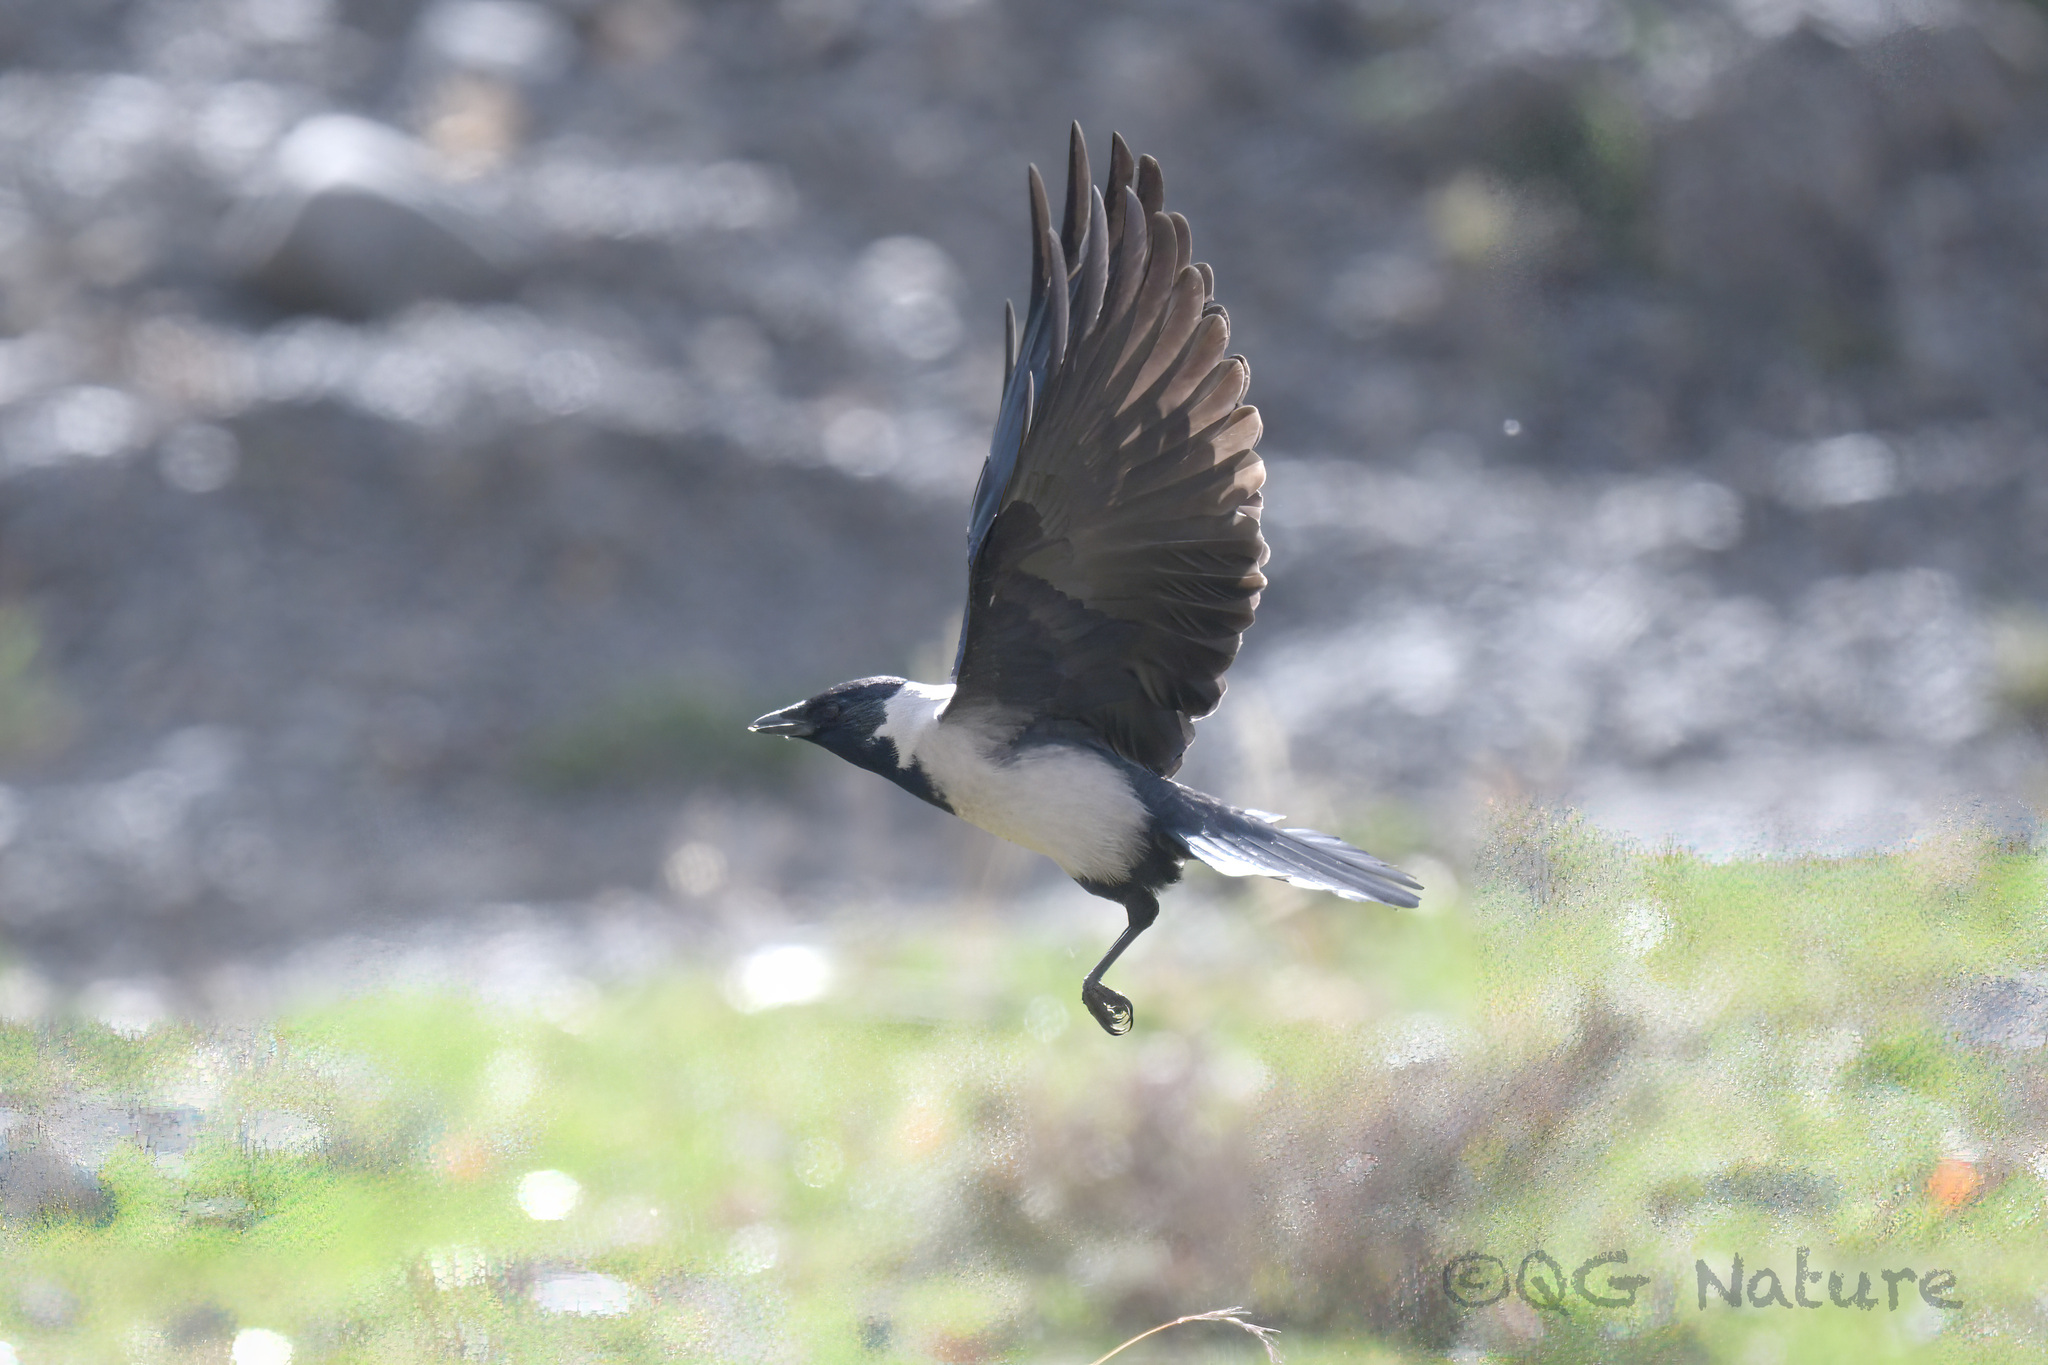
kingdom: Animalia
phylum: Chordata
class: Aves
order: Passeriformes
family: Corvidae
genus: Coloeus
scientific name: Coloeus dauuricus
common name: Daurian jackdaw
